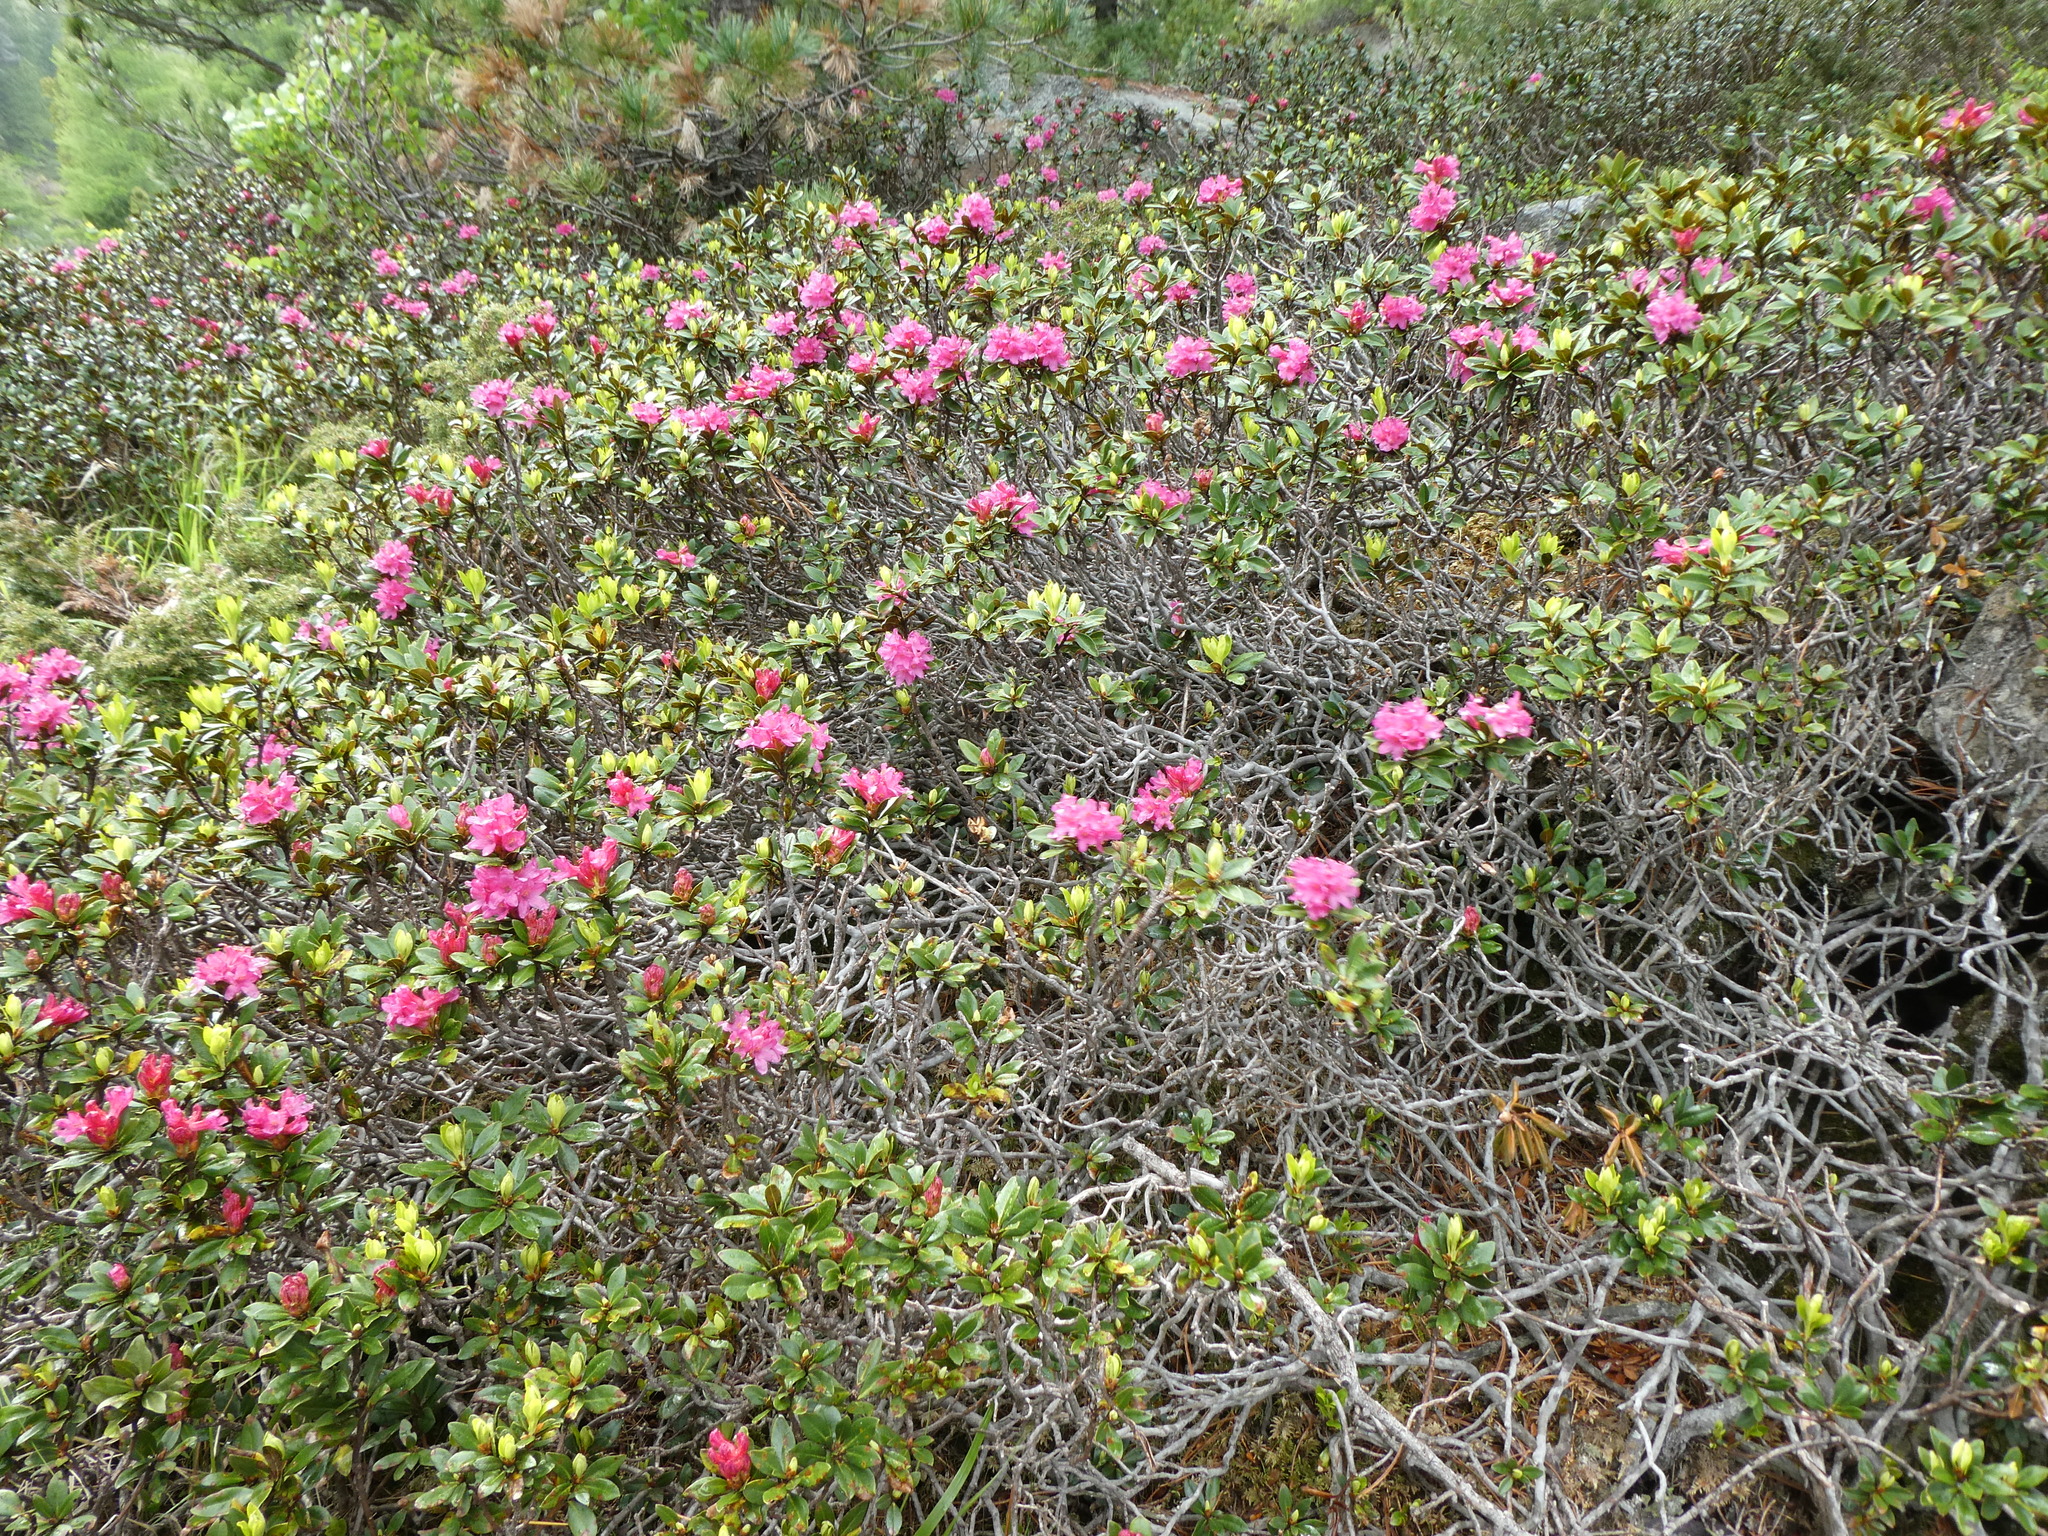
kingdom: Plantae
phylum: Tracheophyta
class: Magnoliopsida
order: Ericales
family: Ericaceae
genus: Rhododendron
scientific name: Rhododendron ferrugineum
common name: Alpenrose
